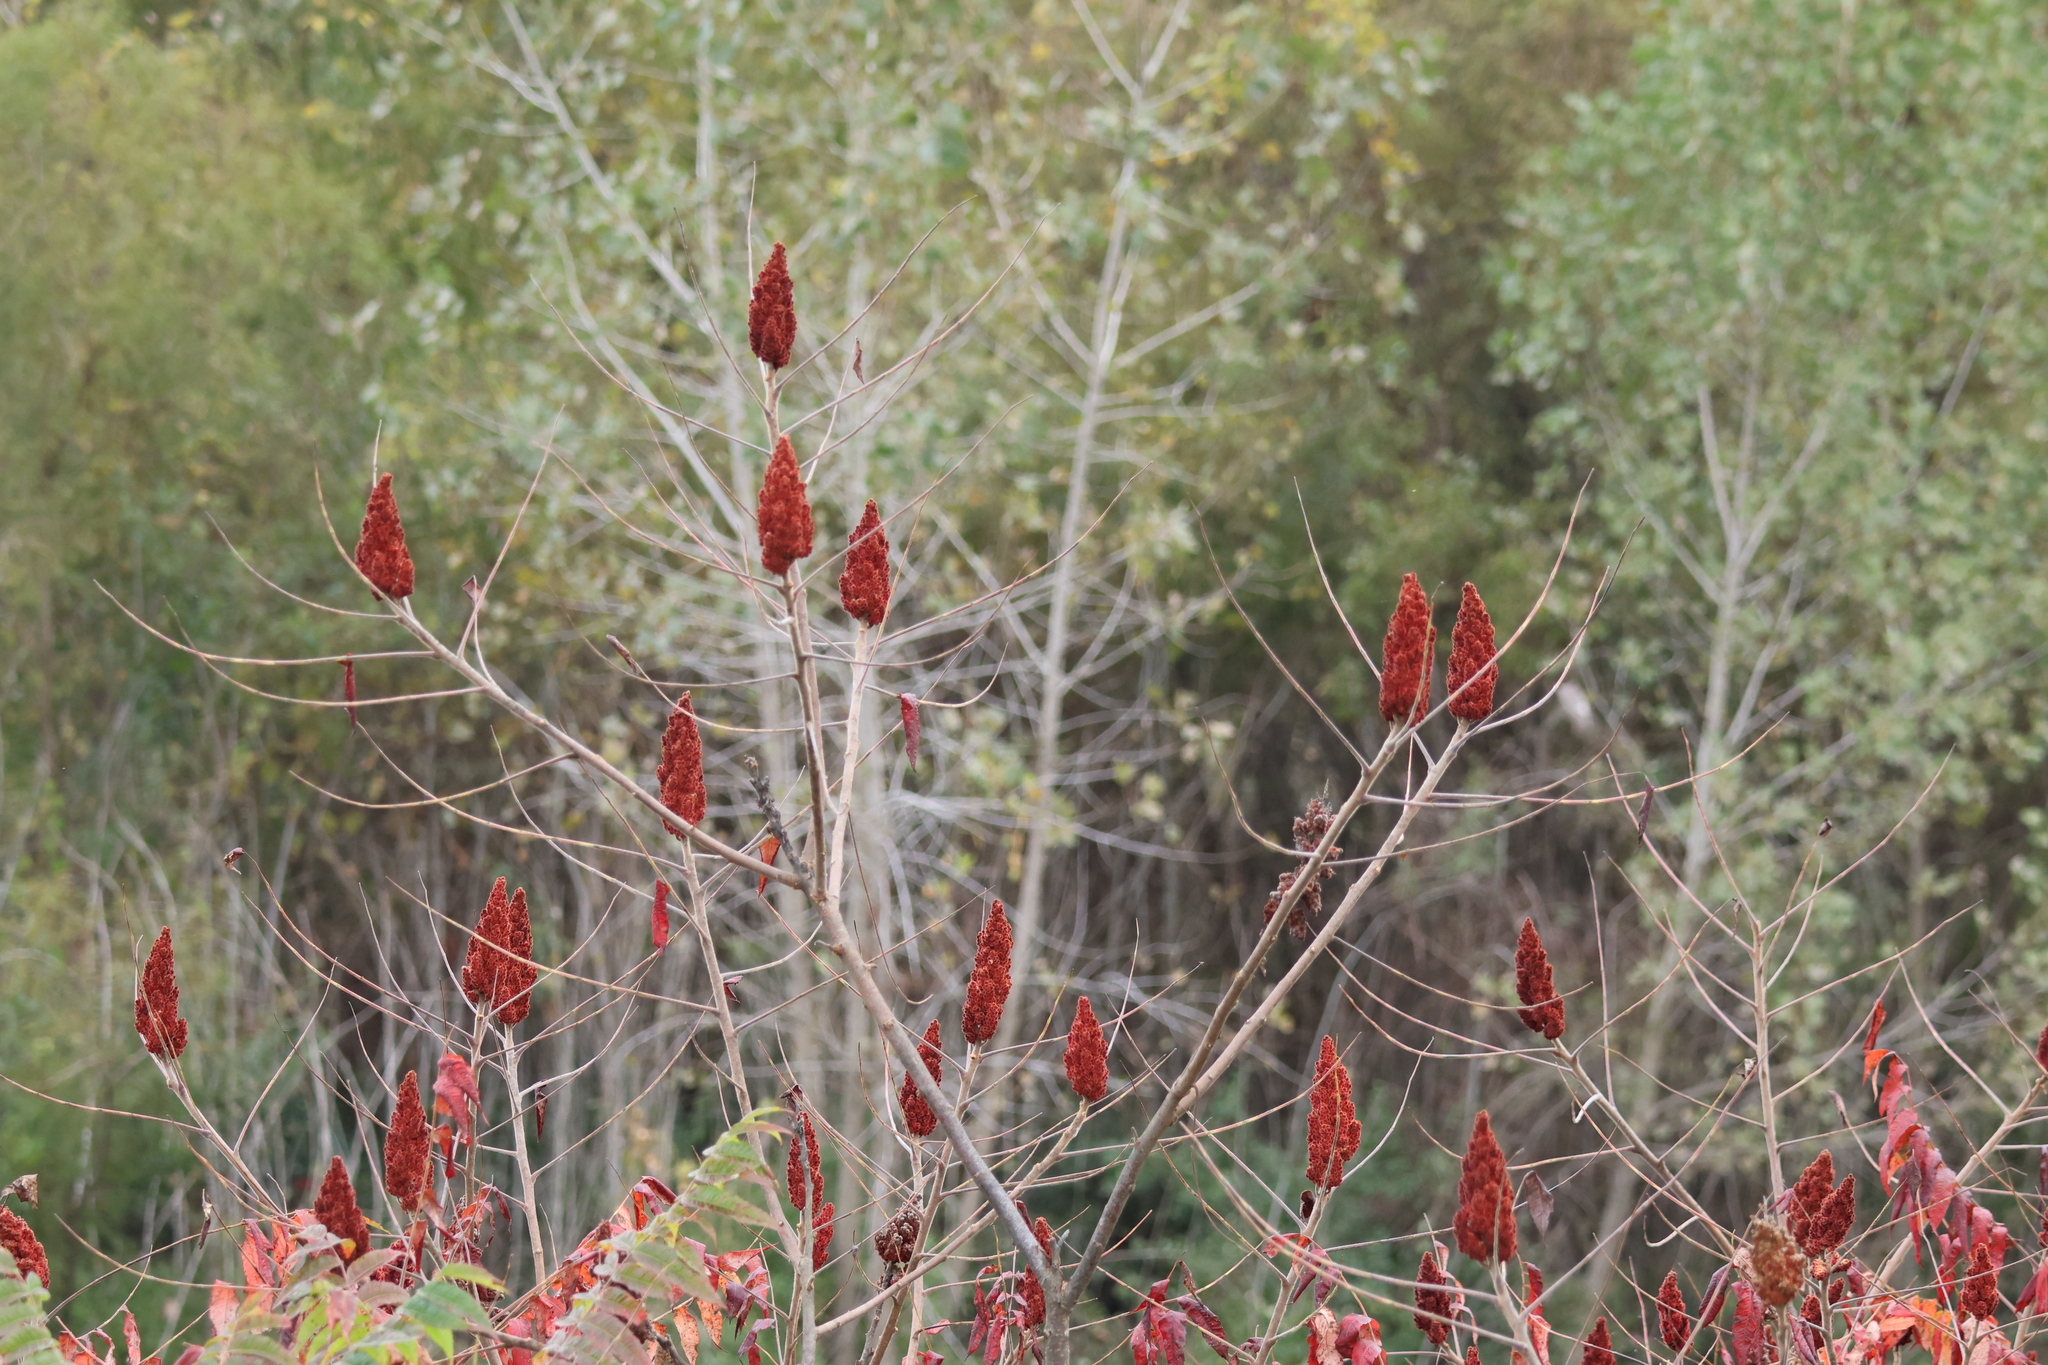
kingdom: Plantae
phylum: Tracheophyta
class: Magnoliopsida
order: Sapindales
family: Anacardiaceae
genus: Rhus
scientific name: Rhus typhina
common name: Staghorn sumac
